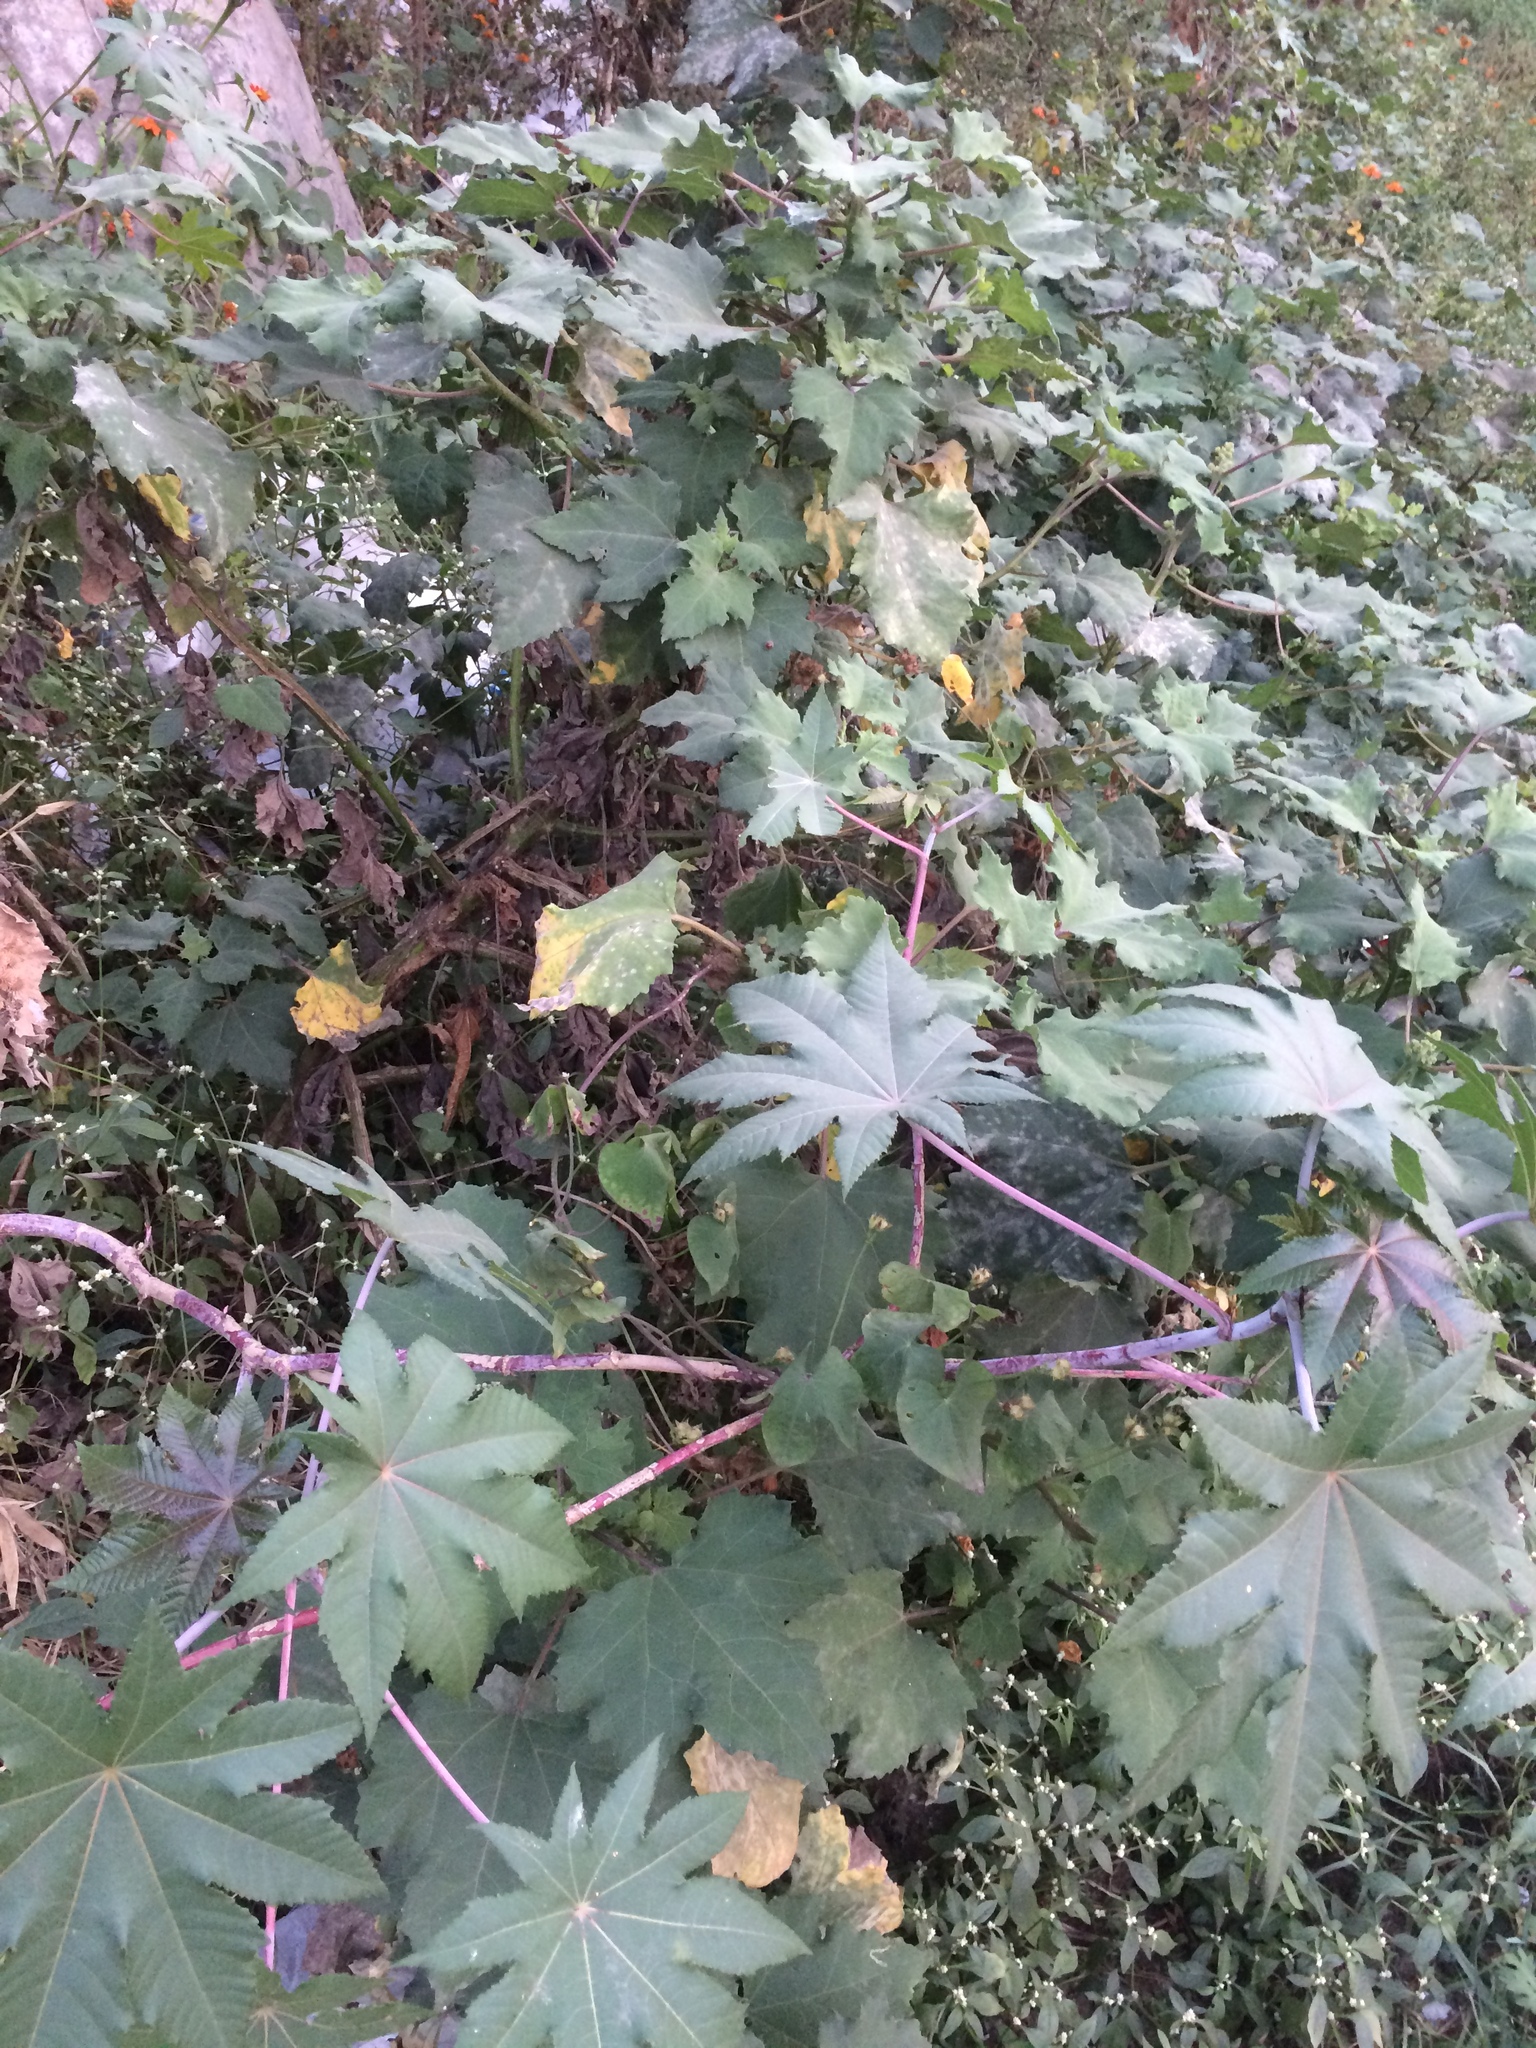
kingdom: Plantae
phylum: Tracheophyta
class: Magnoliopsida
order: Malpighiales
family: Euphorbiaceae
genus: Ricinus
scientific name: Ricinus communis
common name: Castor-oil-plant
